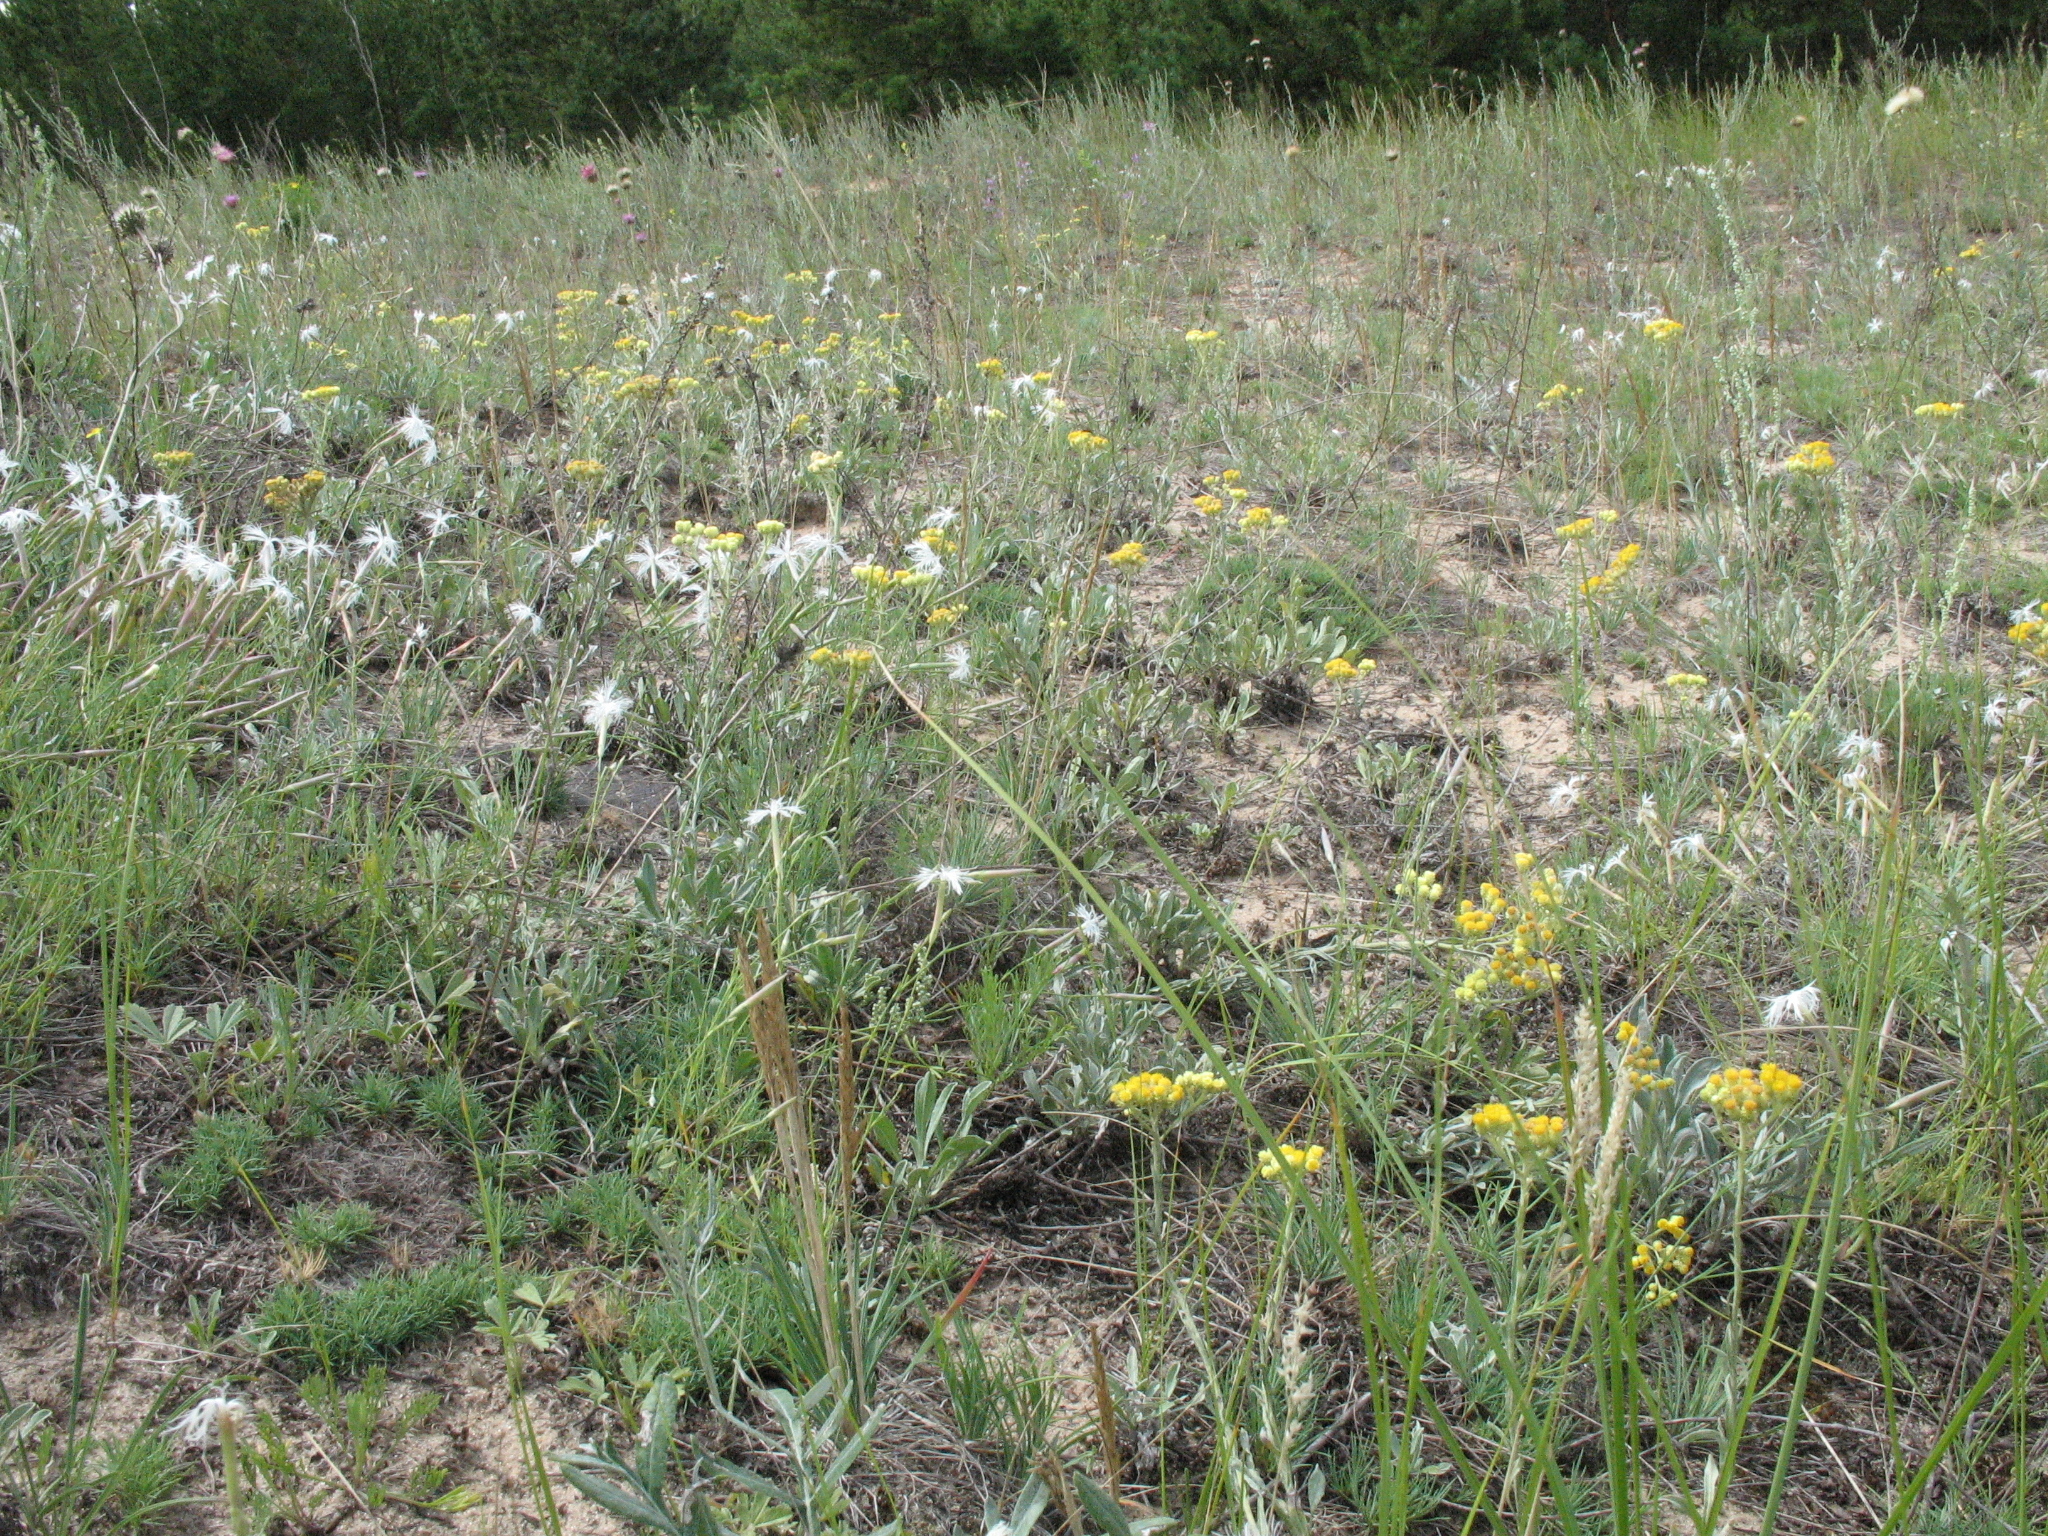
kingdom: Plantae
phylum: Tracheophyta
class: Magnoliopsida
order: Caryophyllales
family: Caryophyllaceae
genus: Dianthus
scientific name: Dianthus volgicus
